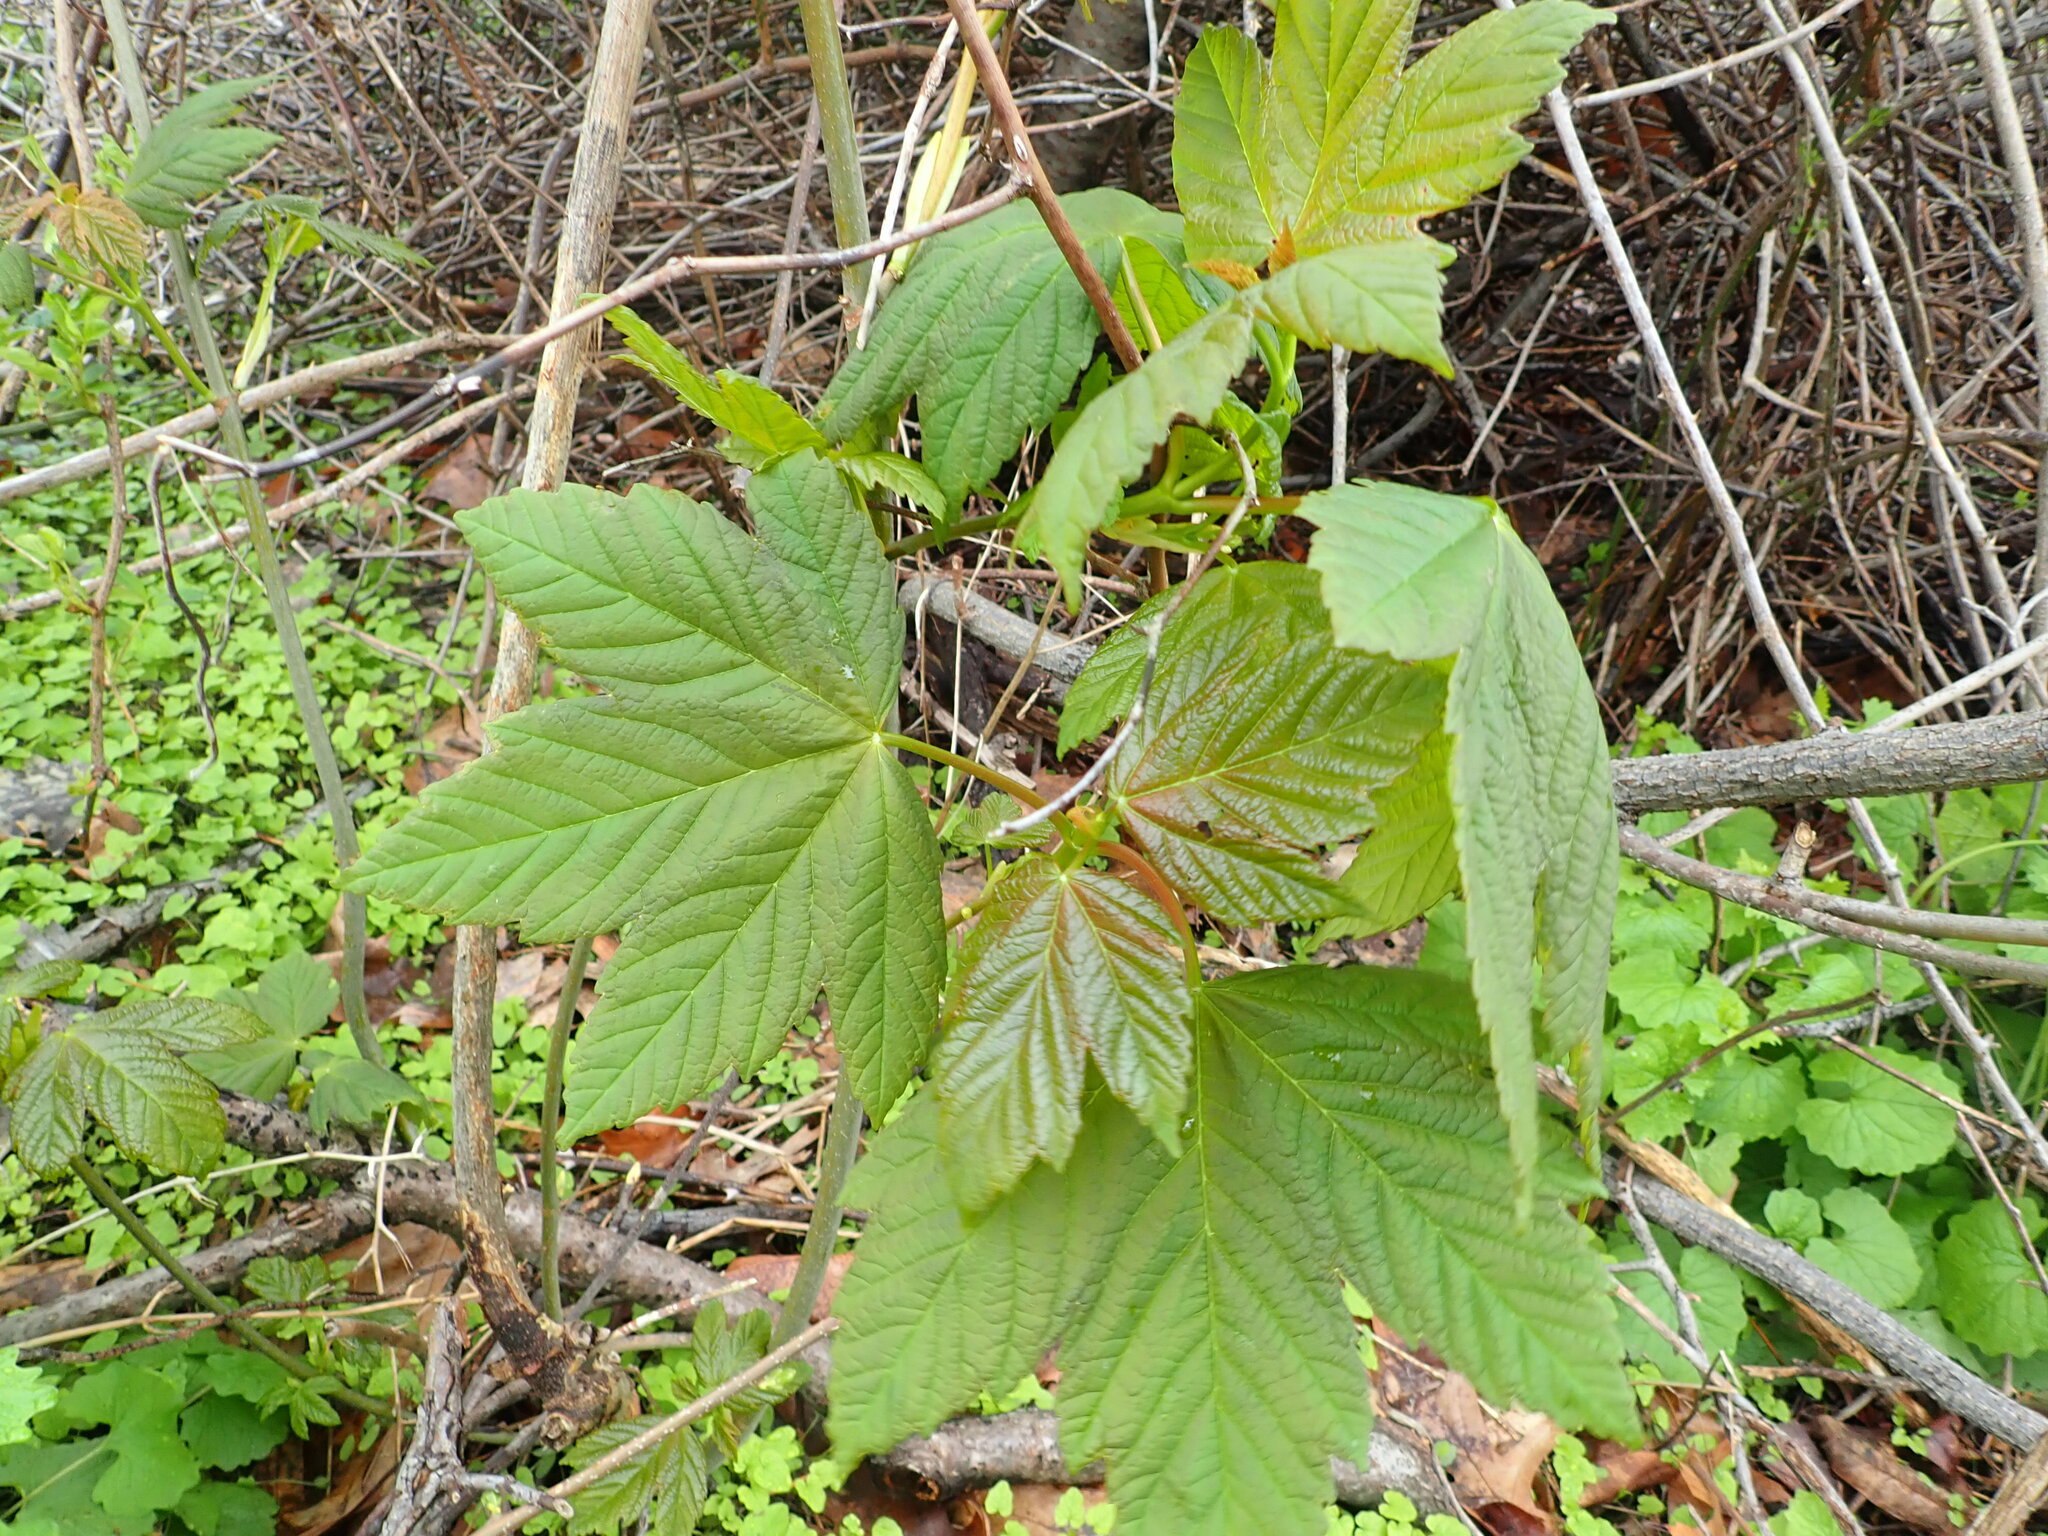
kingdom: Plantae
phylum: Tracheophyta
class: Magnoliopsida
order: Sapindales
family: Sapindaceae
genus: Acer
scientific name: Acer pseudoplatanus
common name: Sycamore
